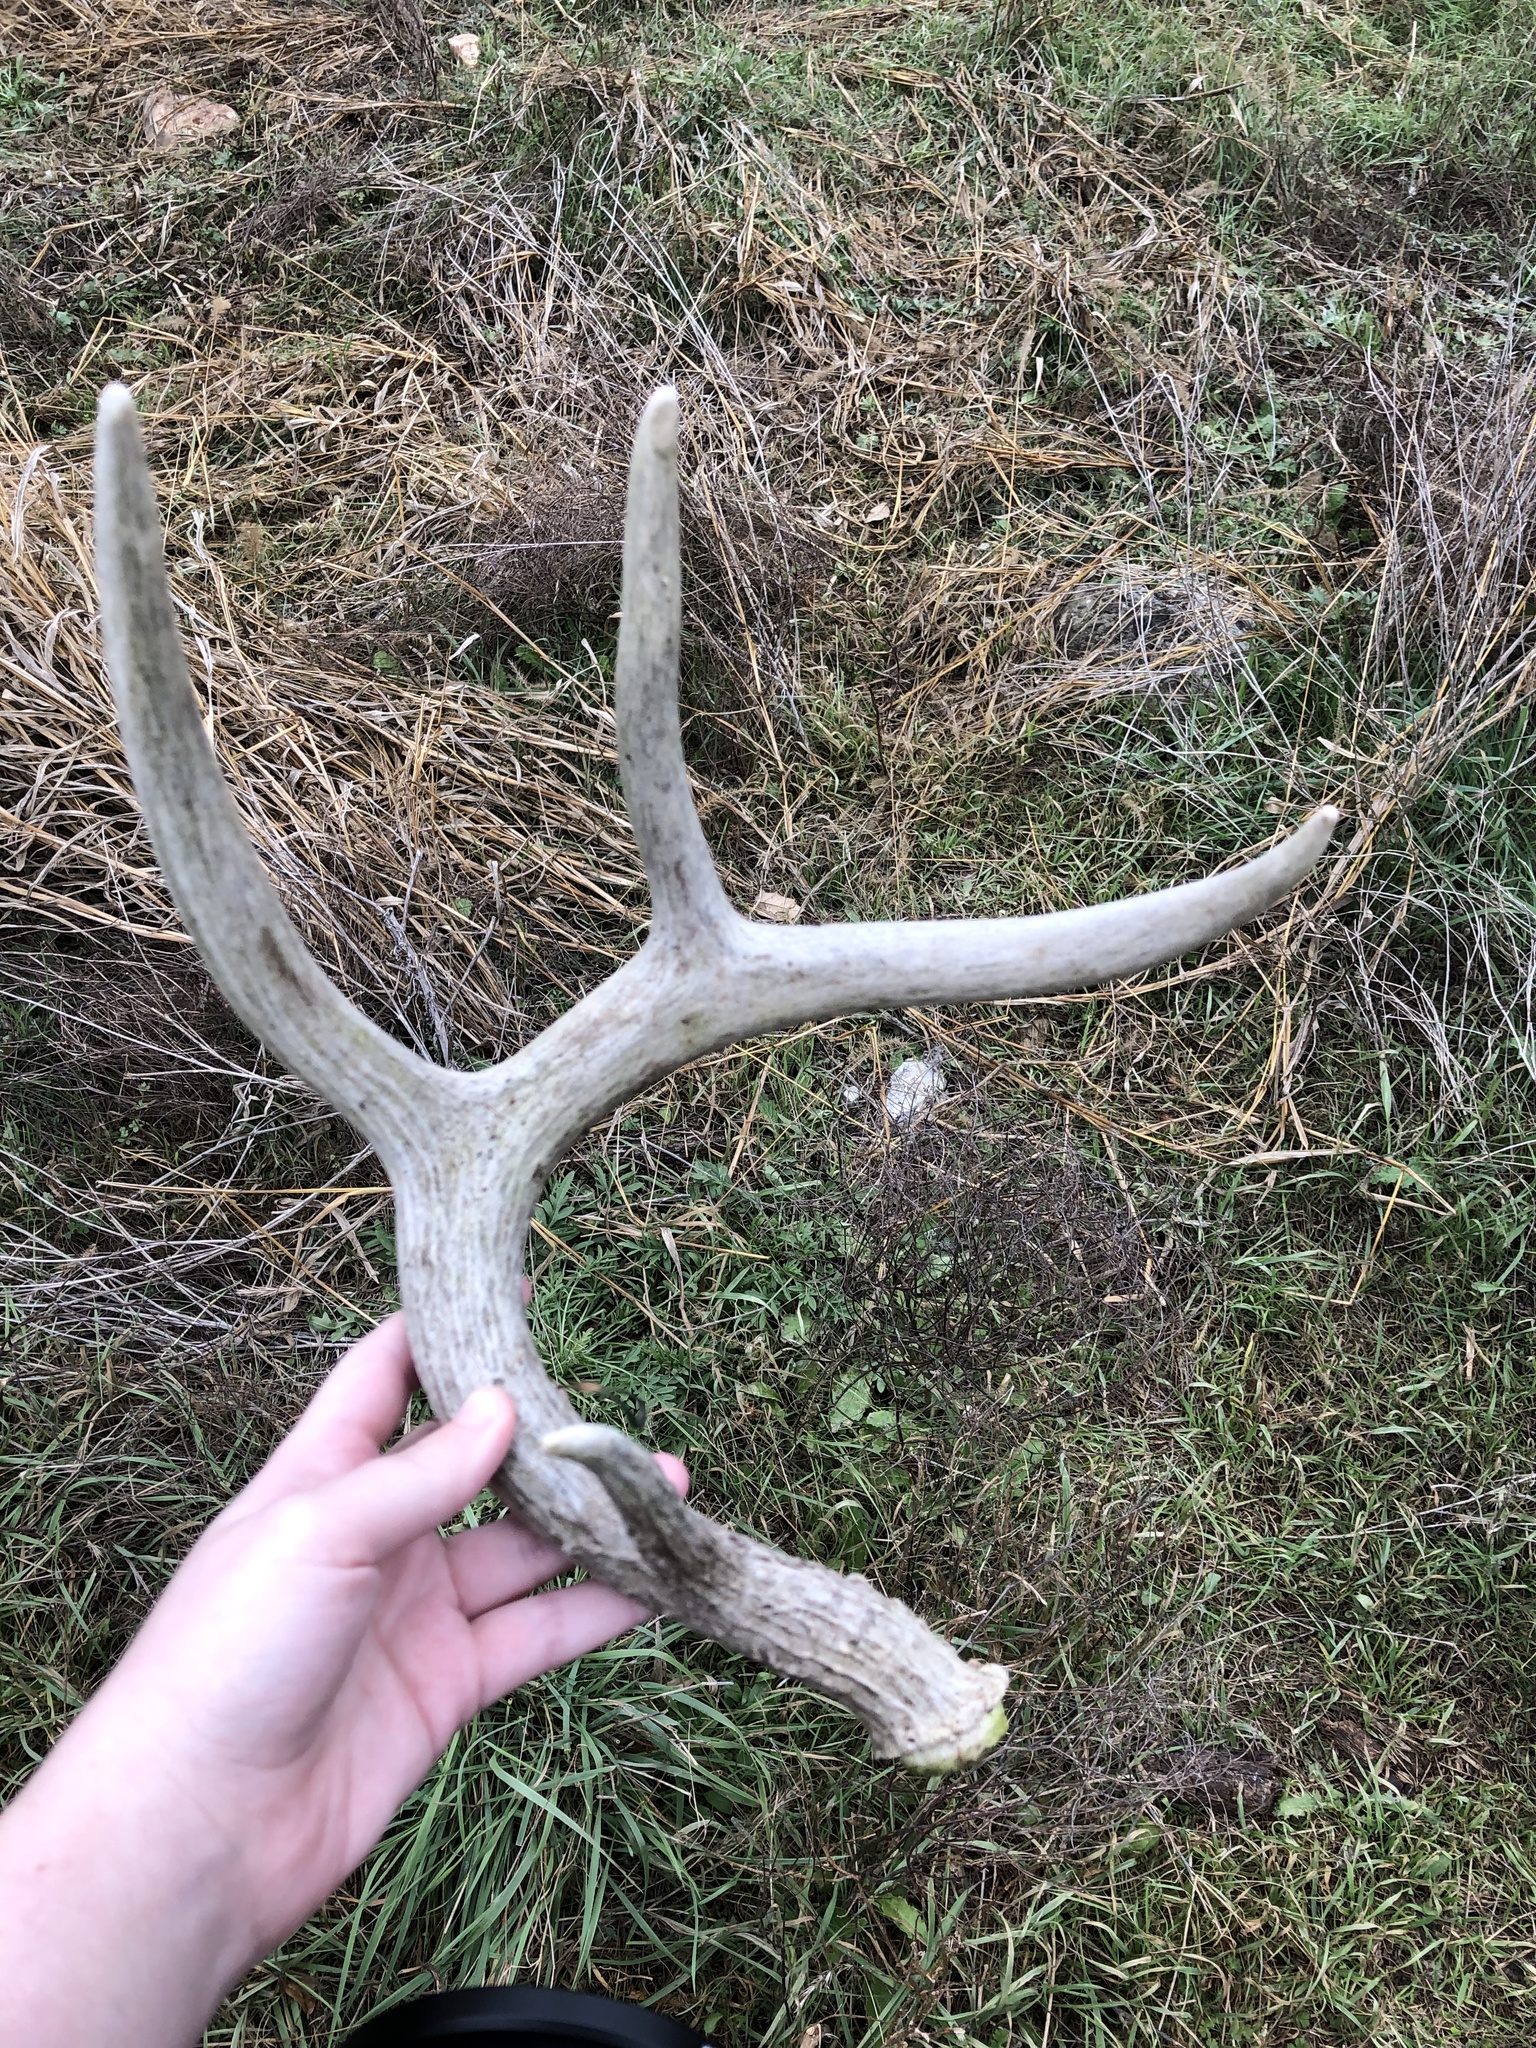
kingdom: Animalia
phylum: Chordata
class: Mammalia
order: Artiodactyla
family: Cervidae
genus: Odocoileus
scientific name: Odocoileus virginianus
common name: White-tailed deer
